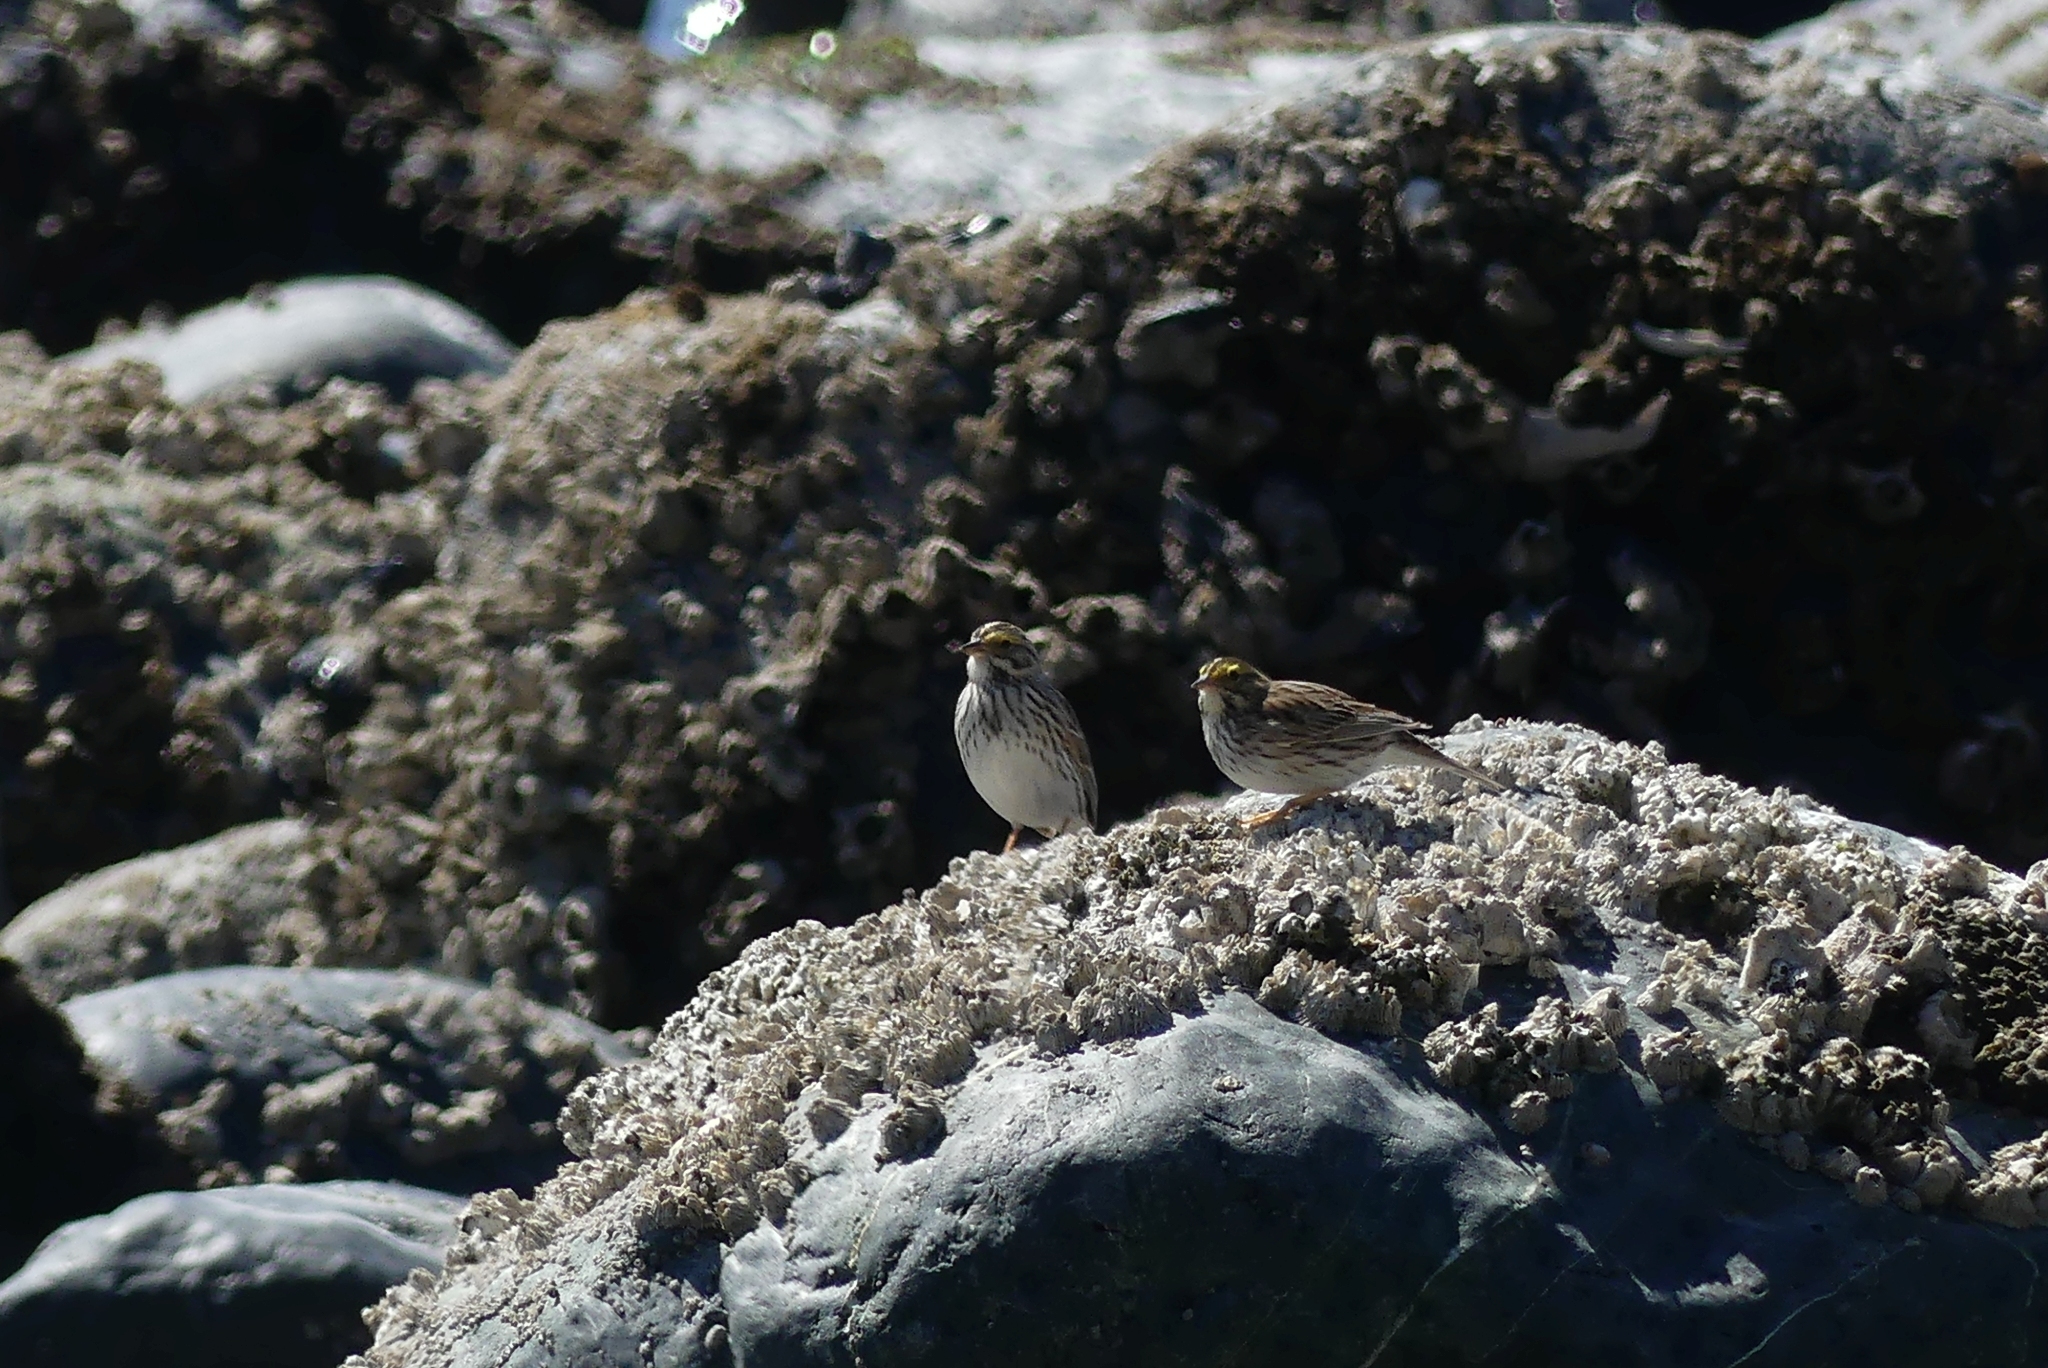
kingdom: Animalia
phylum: Chordata
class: Aves
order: Passeriformes
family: Passerellidae
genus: Passerculus
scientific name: Passerculus sandwichensis
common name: Savannah sparrow
